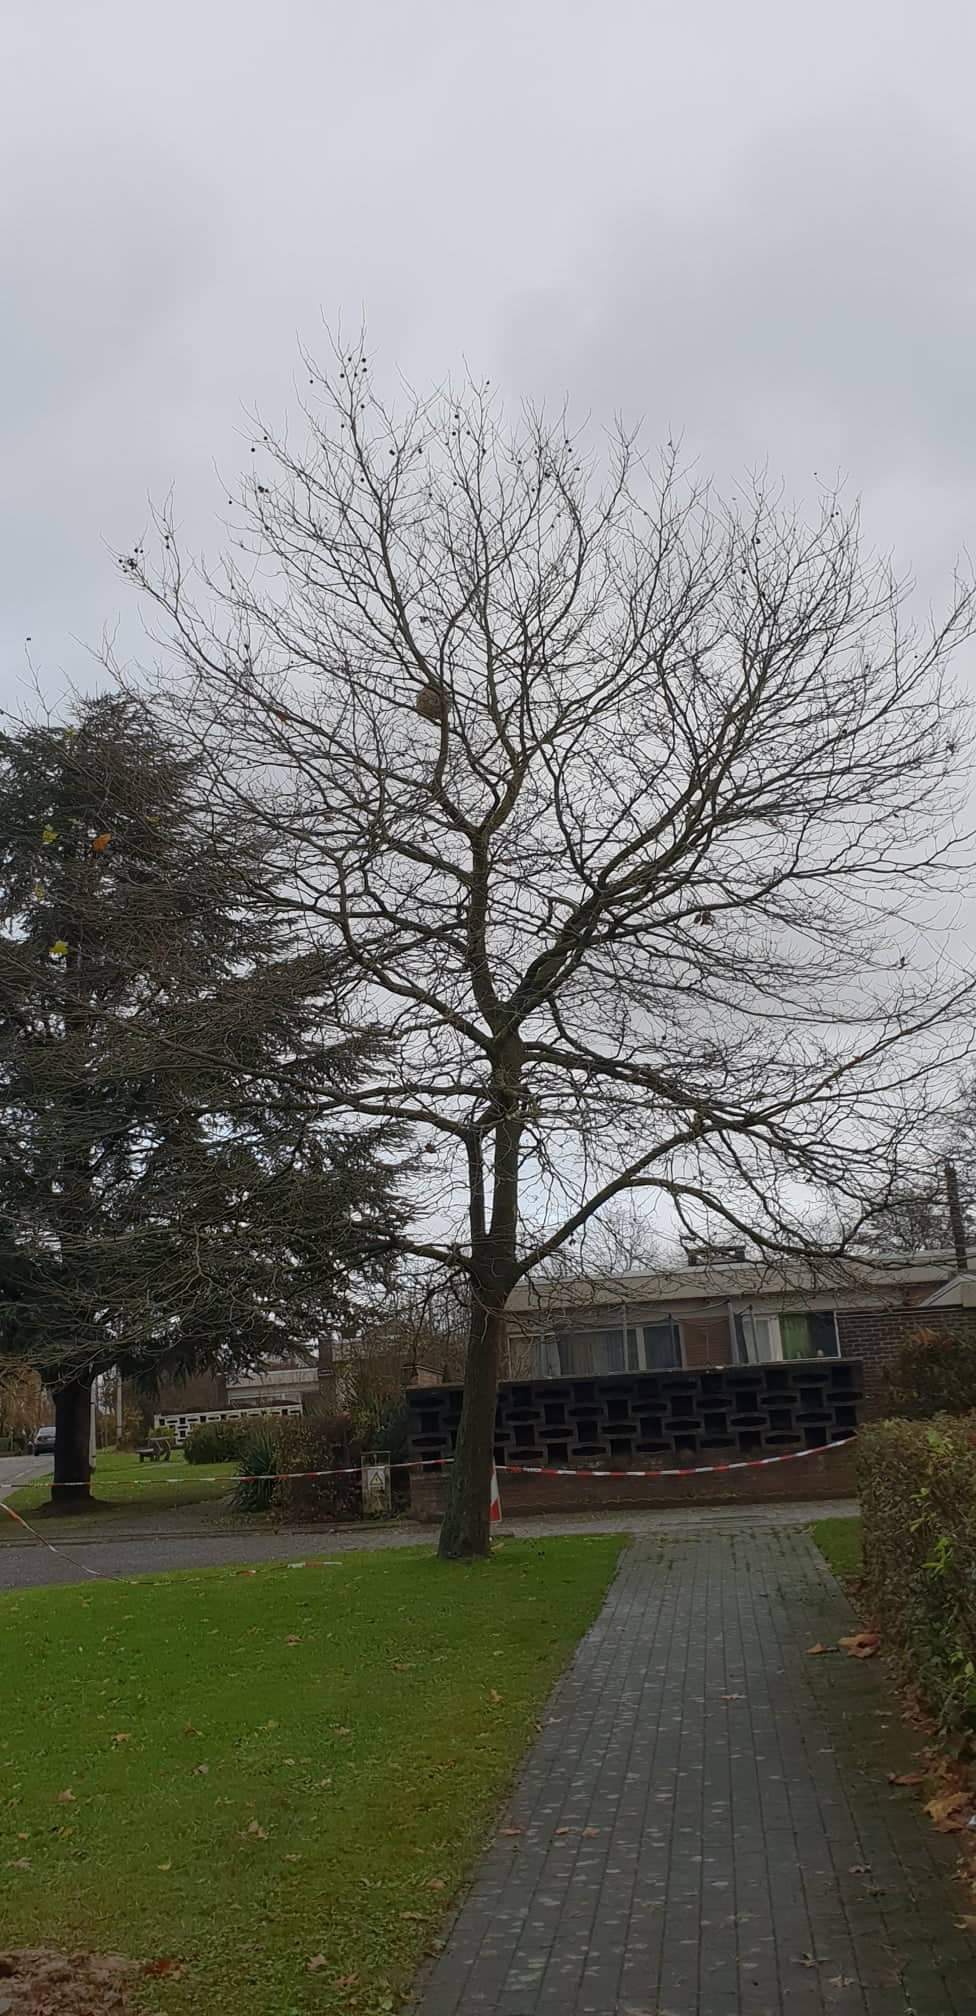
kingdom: Animalia
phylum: Arthropoda
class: Insecta
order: Hymenoptera
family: Vespidae
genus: Vespa
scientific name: Vespa velutina
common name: Asian hornet
